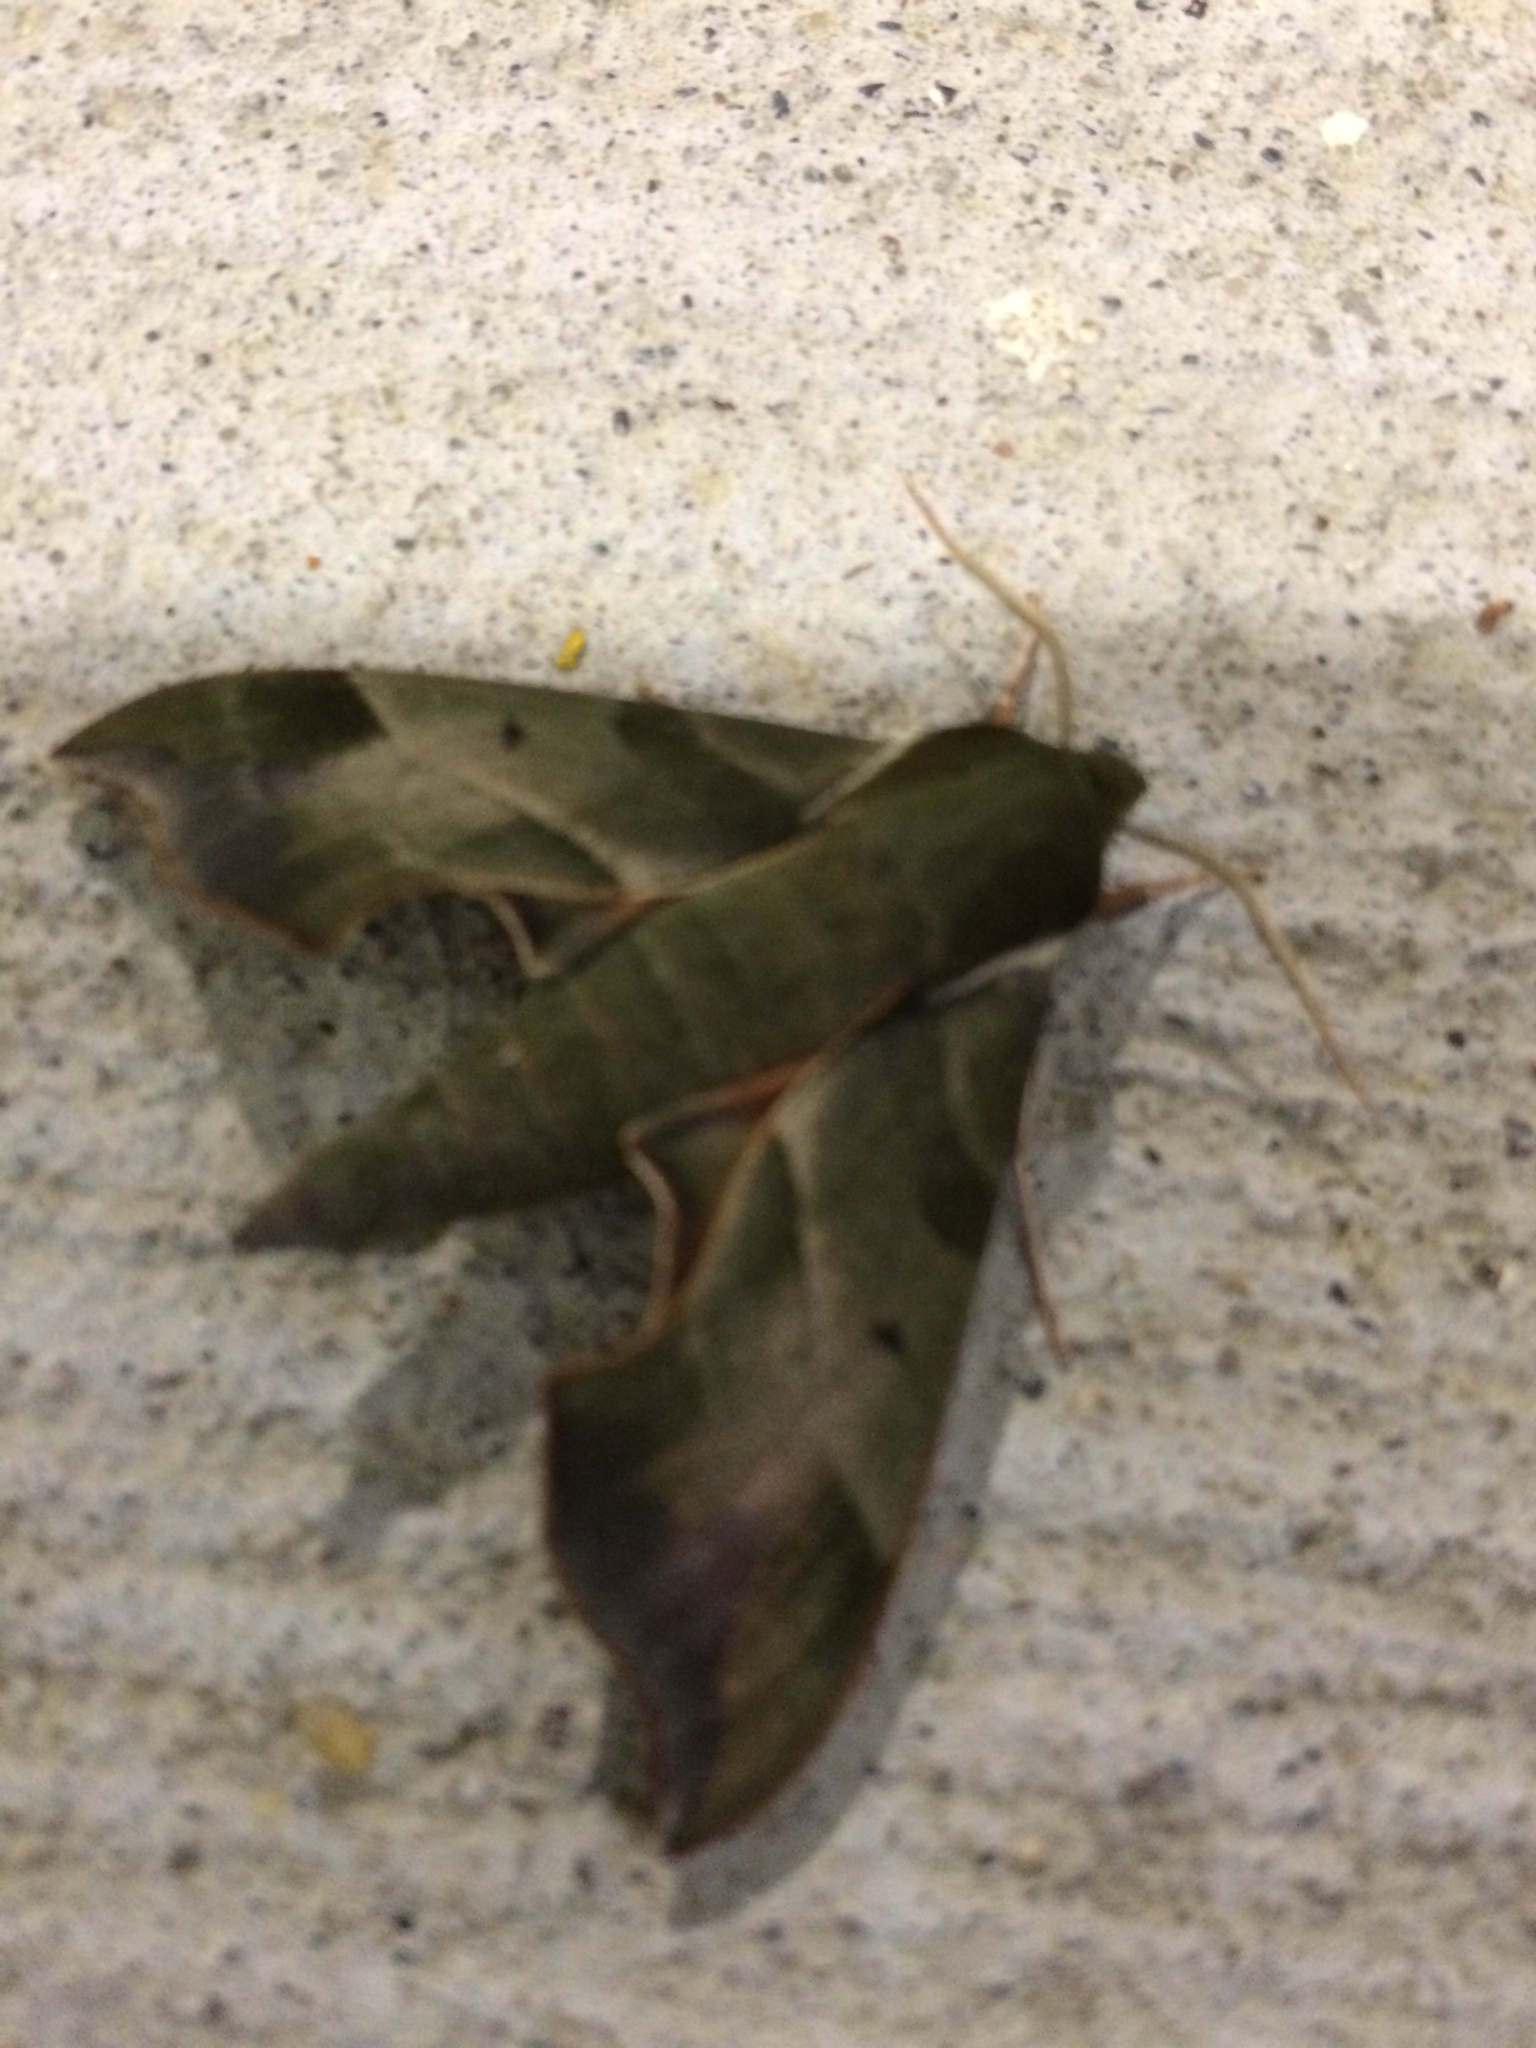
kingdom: Animalia
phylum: Arthropoda
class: Insecta
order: Lepidoptera
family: Sphingidae
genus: Darapsa
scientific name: Darapsa myron
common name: Hog sphinx
